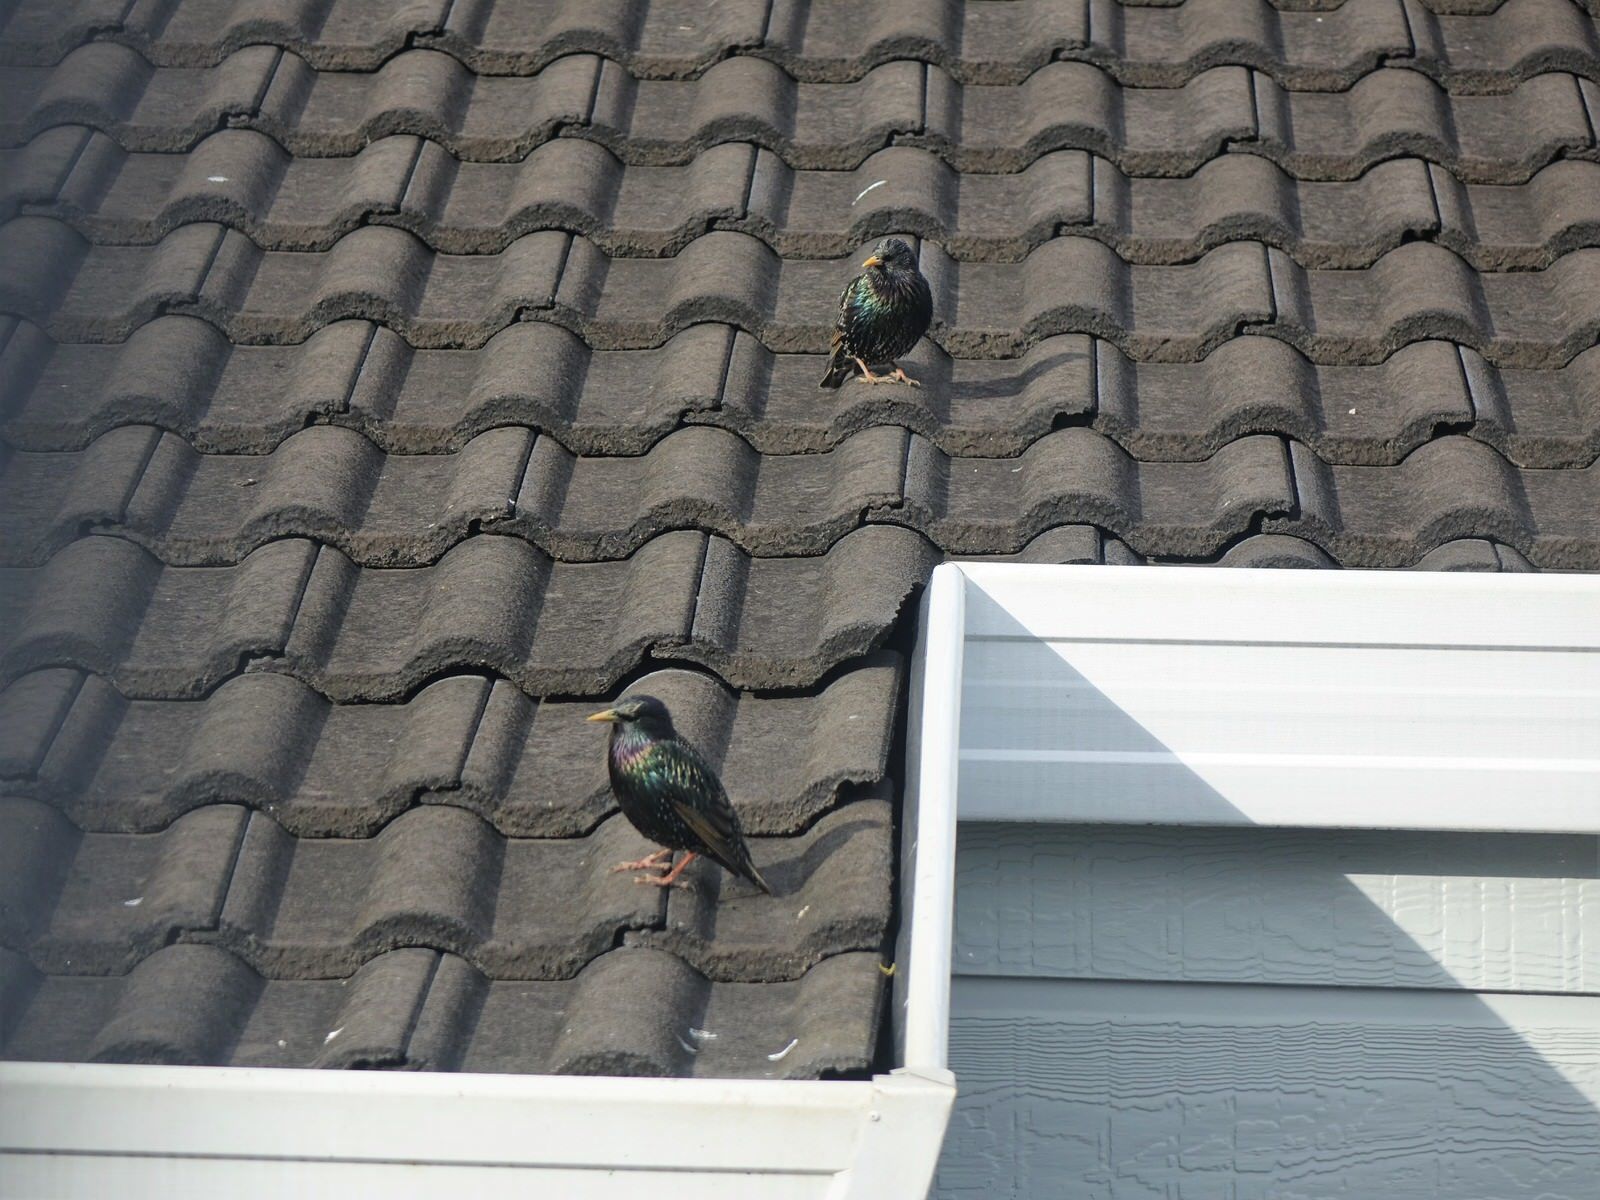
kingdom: Animalia
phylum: Chordata
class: Aves
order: Passeriformes
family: Sturnidae
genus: Sturnus
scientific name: Sturnus vulgaris
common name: Common starling
